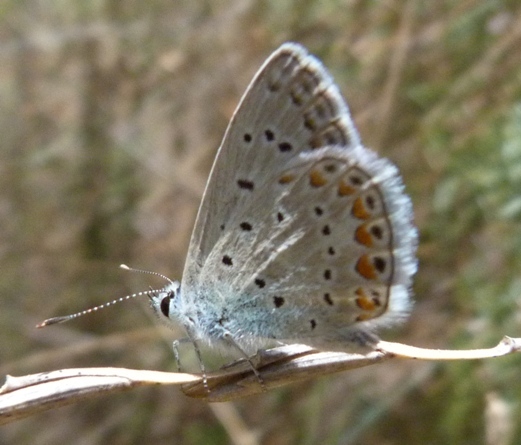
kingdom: Animalia
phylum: Arthropoda
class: Insecta
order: Lepidoptera
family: Lycaenidae
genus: Polyommatus
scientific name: Polyommatus icarus
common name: Common blue
